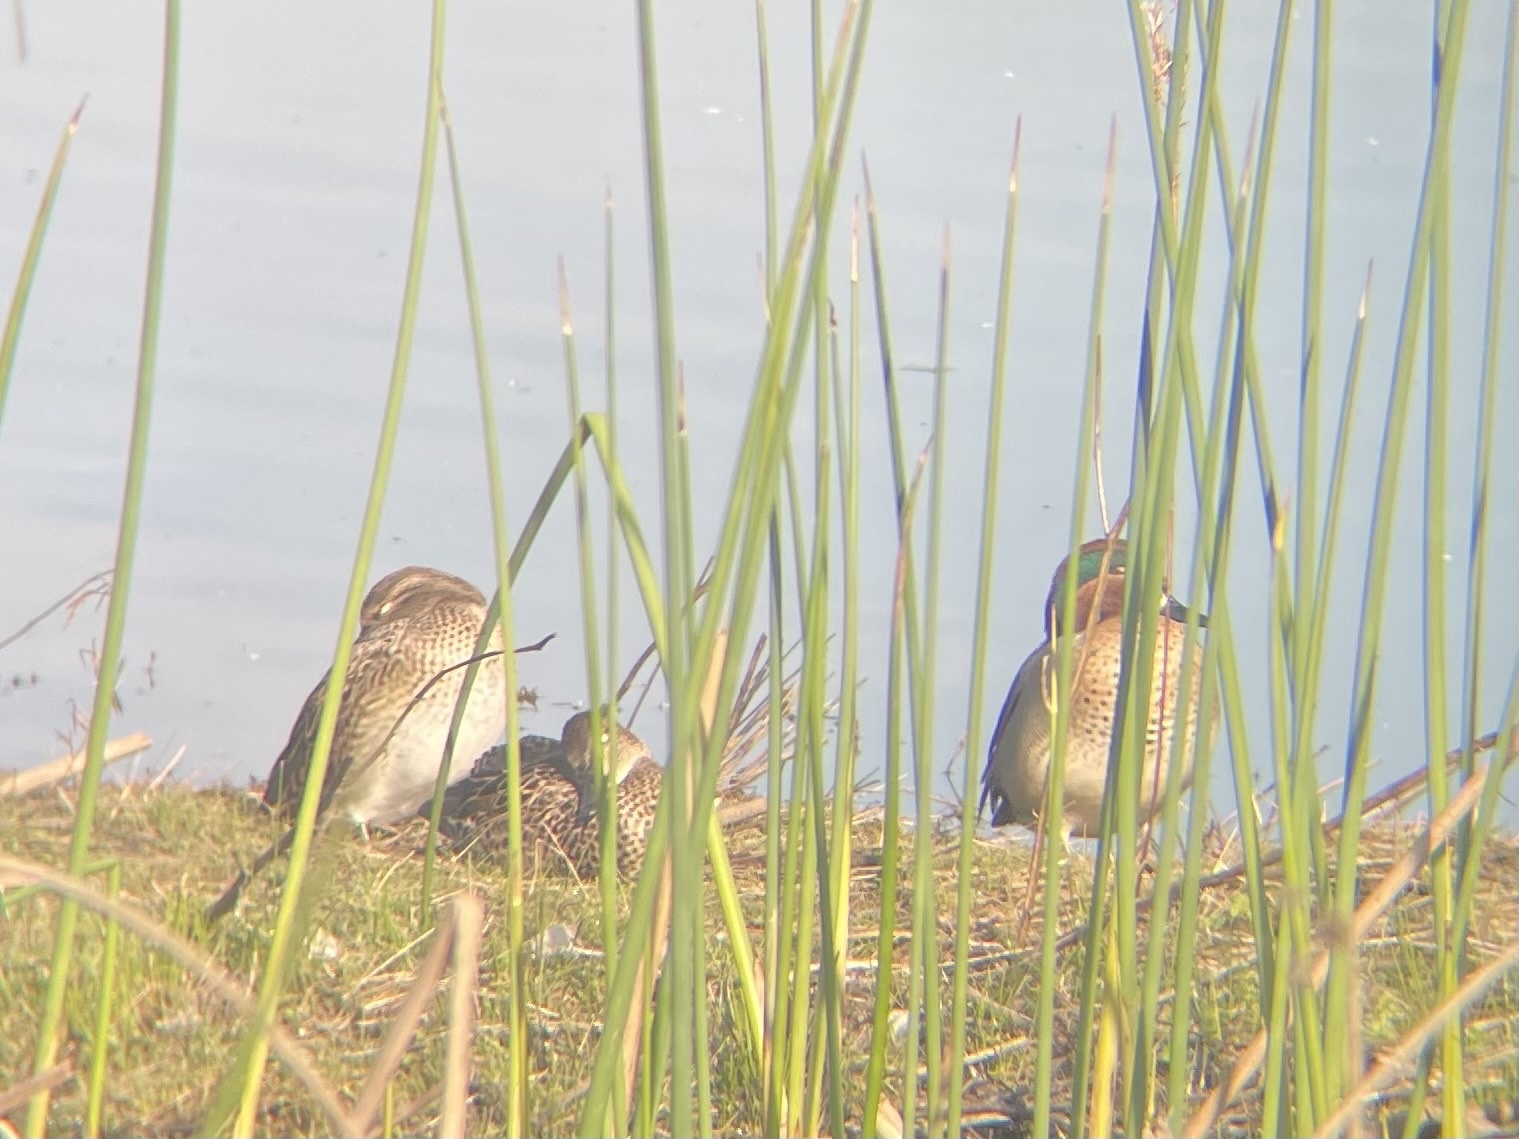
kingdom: Animalia
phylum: Chordata
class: Aves
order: Anseriformes
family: Anatidae
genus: Anas
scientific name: Anas crecca
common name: Eurasian teal
